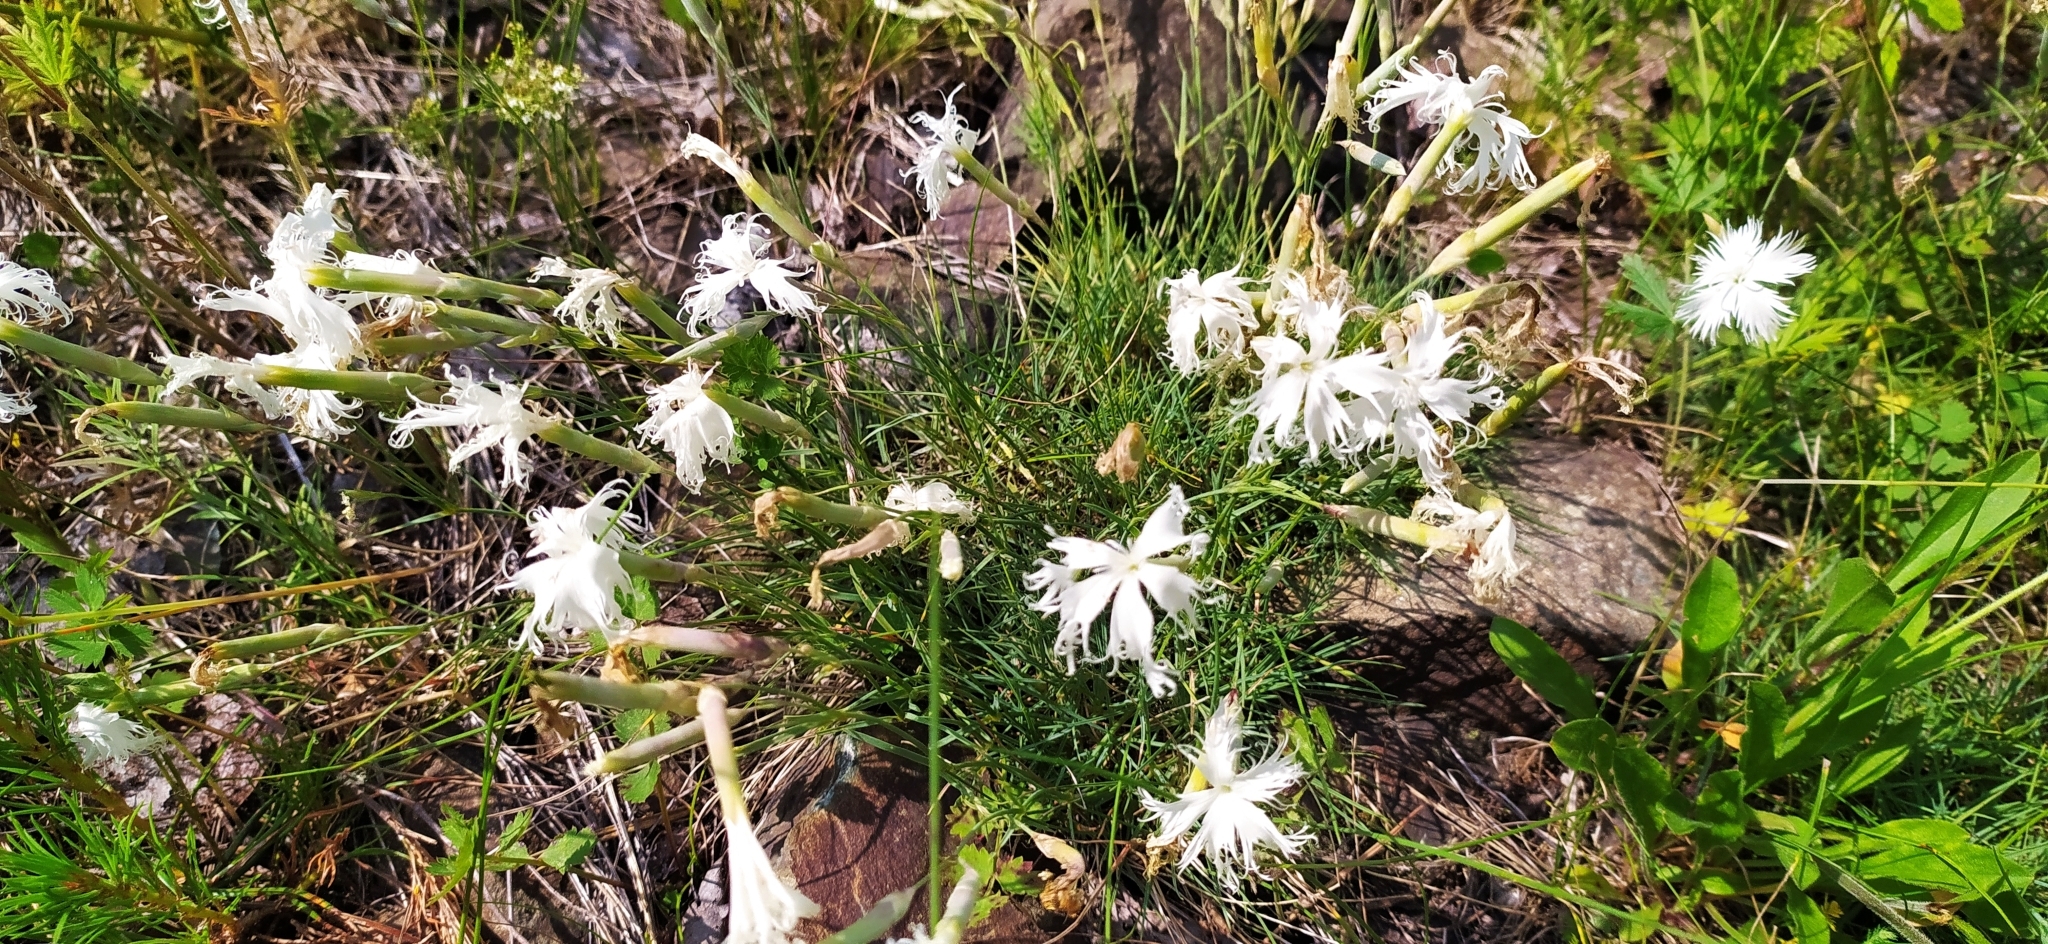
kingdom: Plantae
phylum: Tracheophyta
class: Magnoliopsida
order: Caryophyllales
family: Caryophyllaceae
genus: Dianthus
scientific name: Dianthus acicularis
